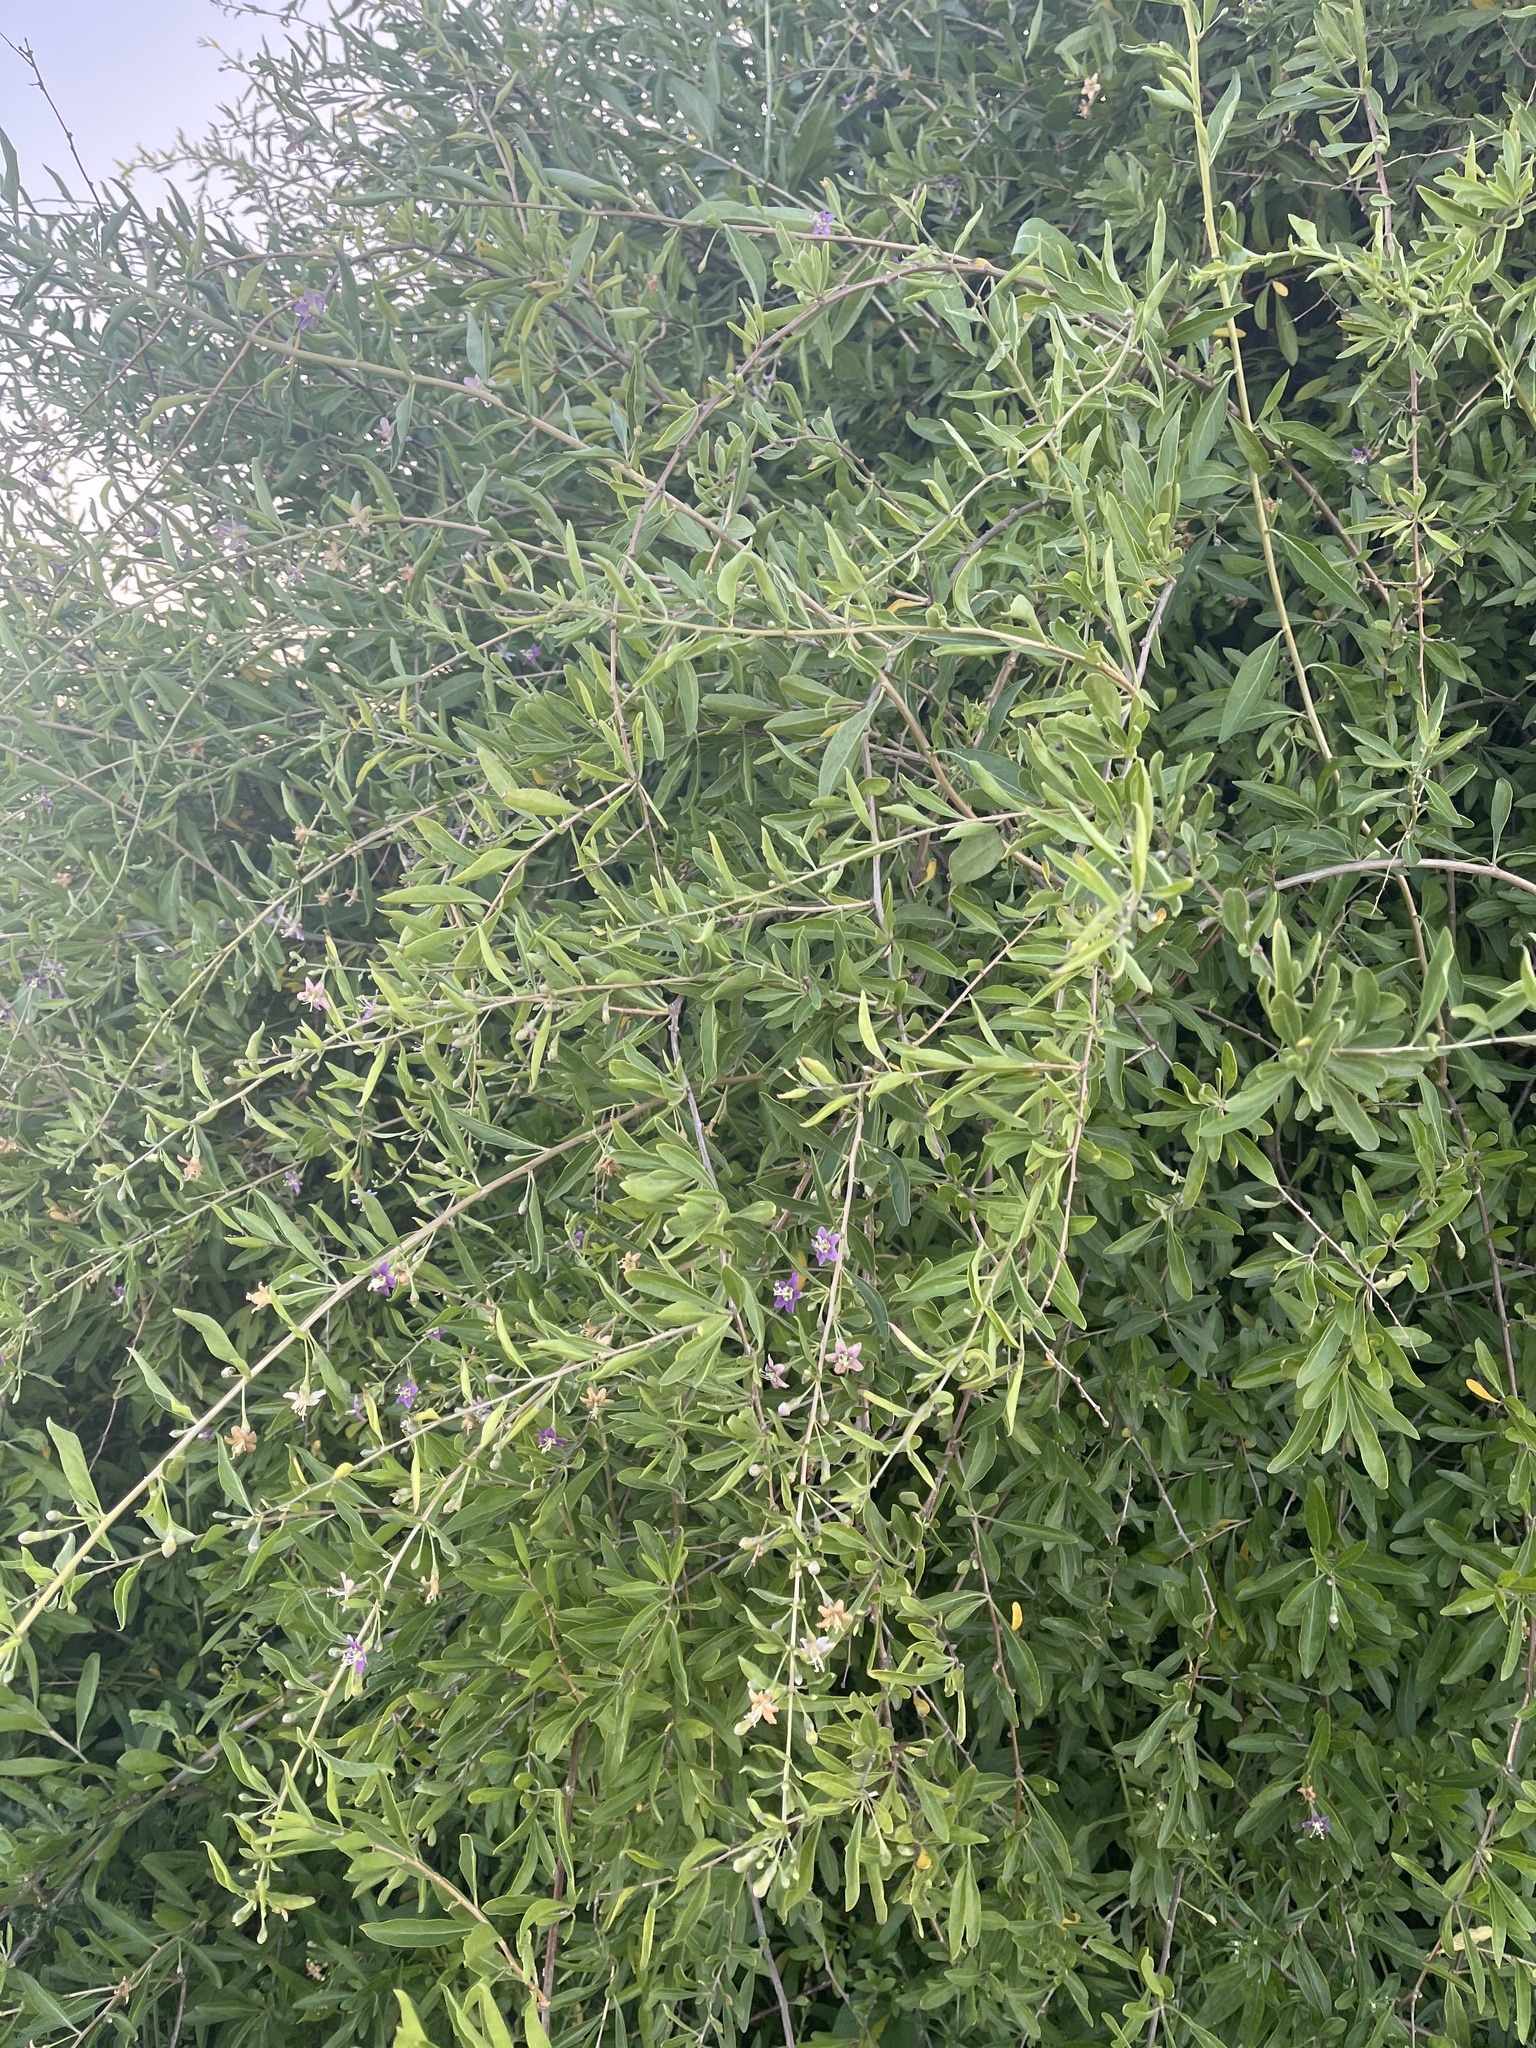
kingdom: Plantae
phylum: Tracheophyta
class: Magnoliopsida
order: Solanales
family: Solanaceae
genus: Lycium
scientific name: Lycium barbarum
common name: Duke of argyll's teaplant
